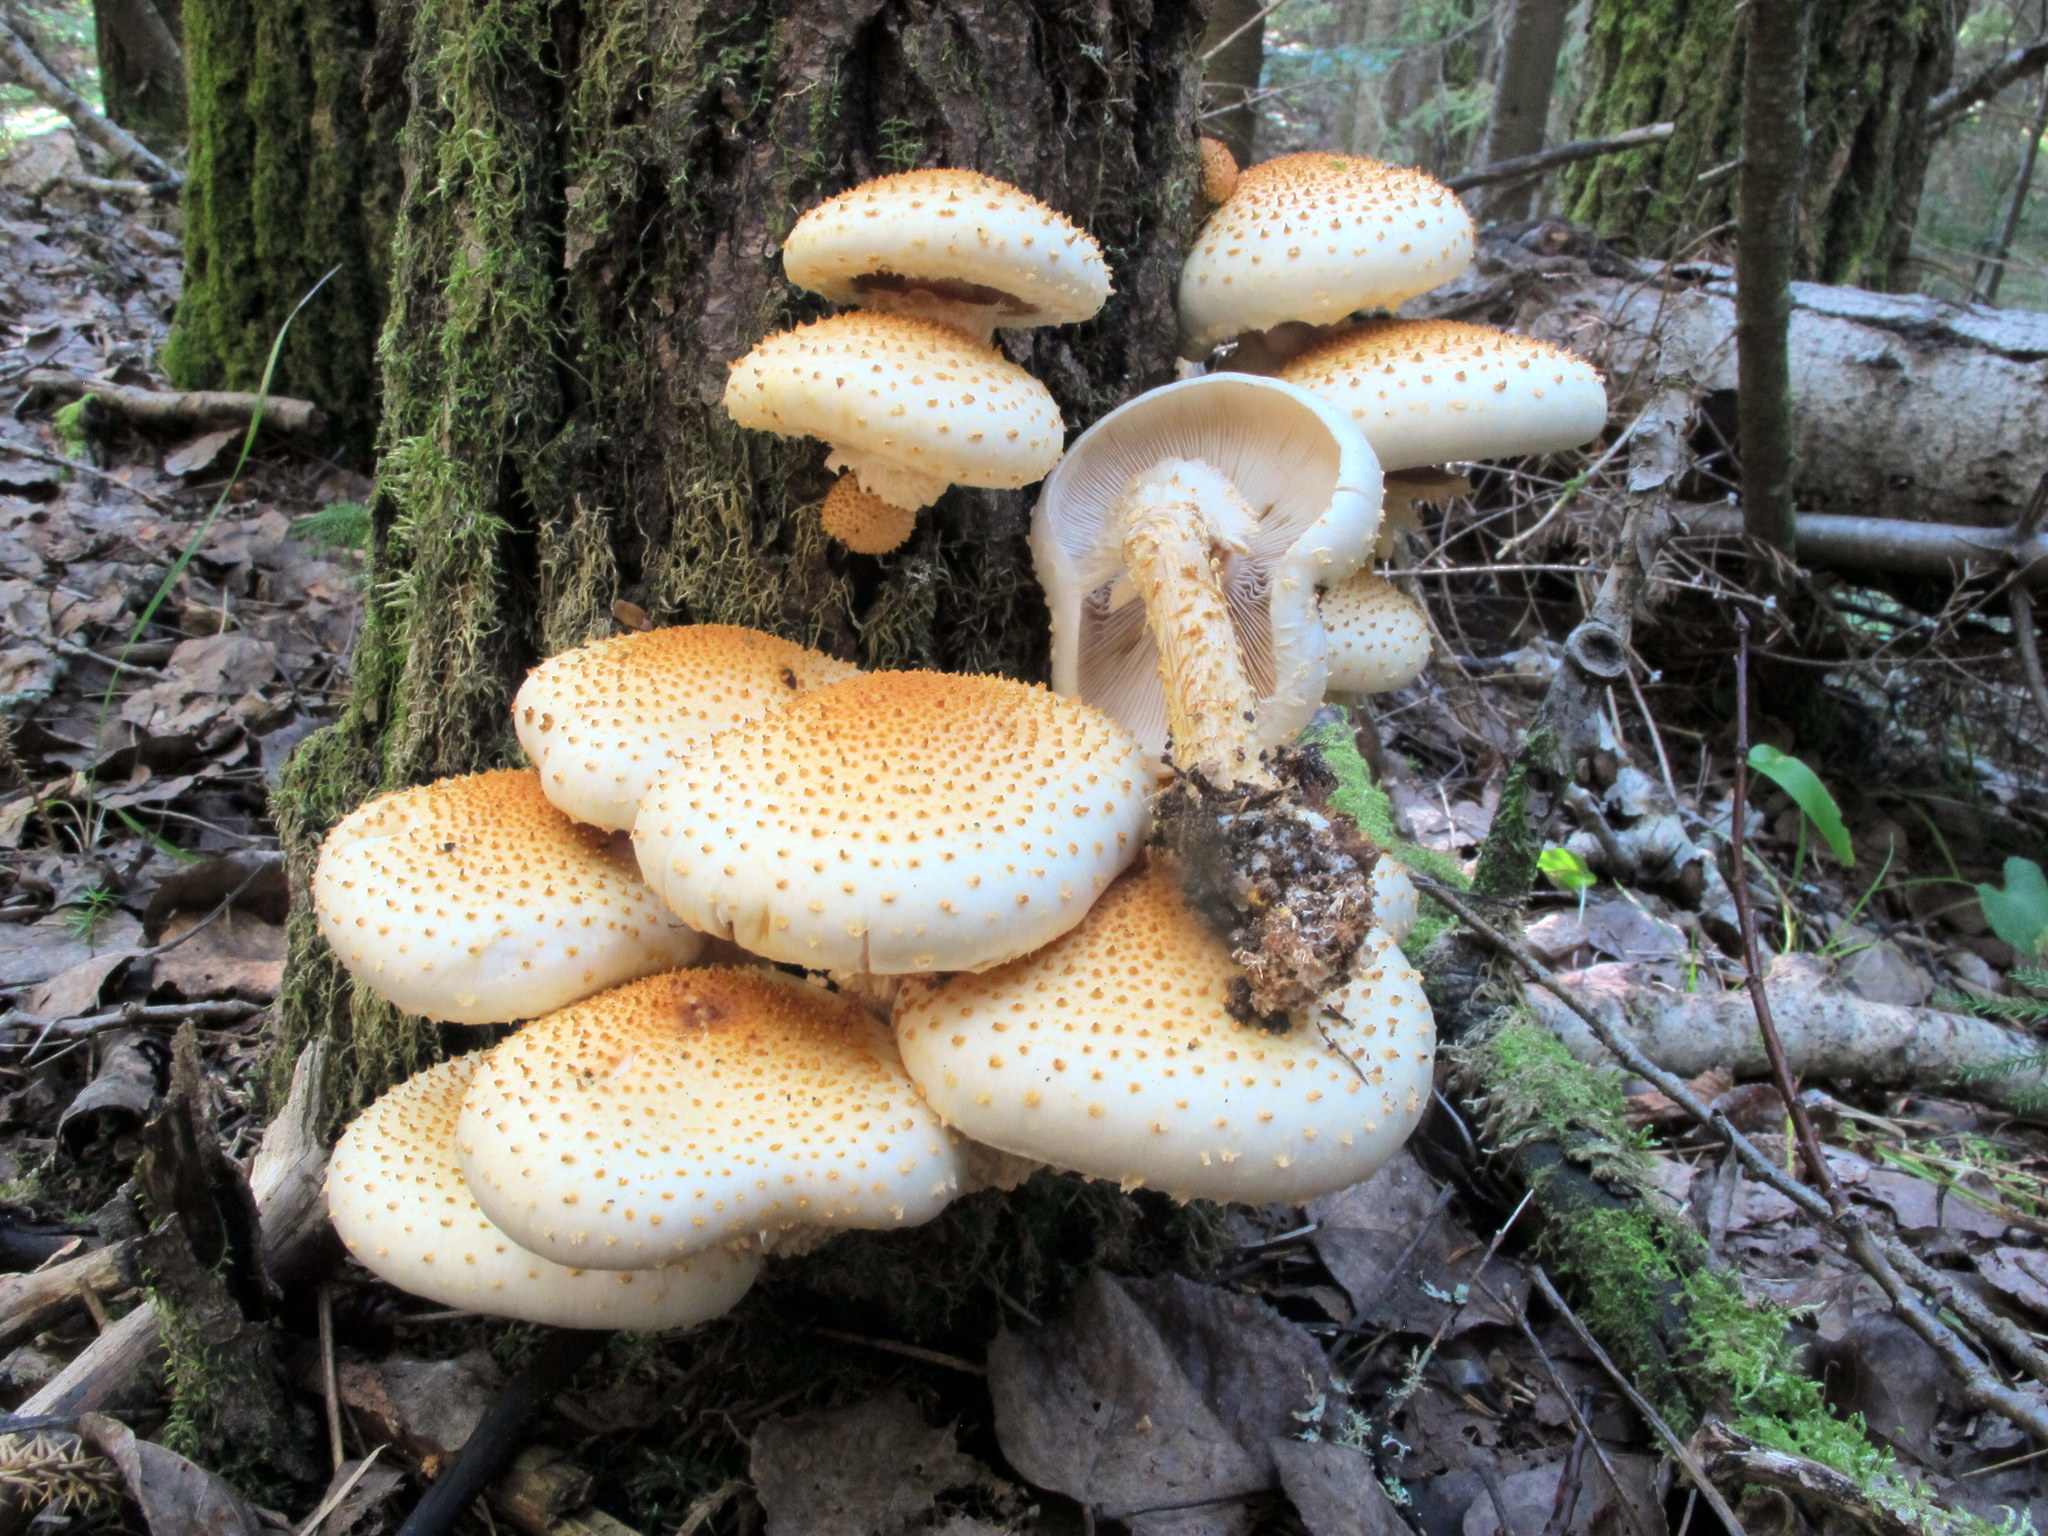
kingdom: Fungi
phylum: Basidiomycota
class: Agaricomycetes
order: Agaricales
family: Strophariaceae
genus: Pholiota
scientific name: Pholiota squarrosoides
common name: Sharp-scaly pholiota
